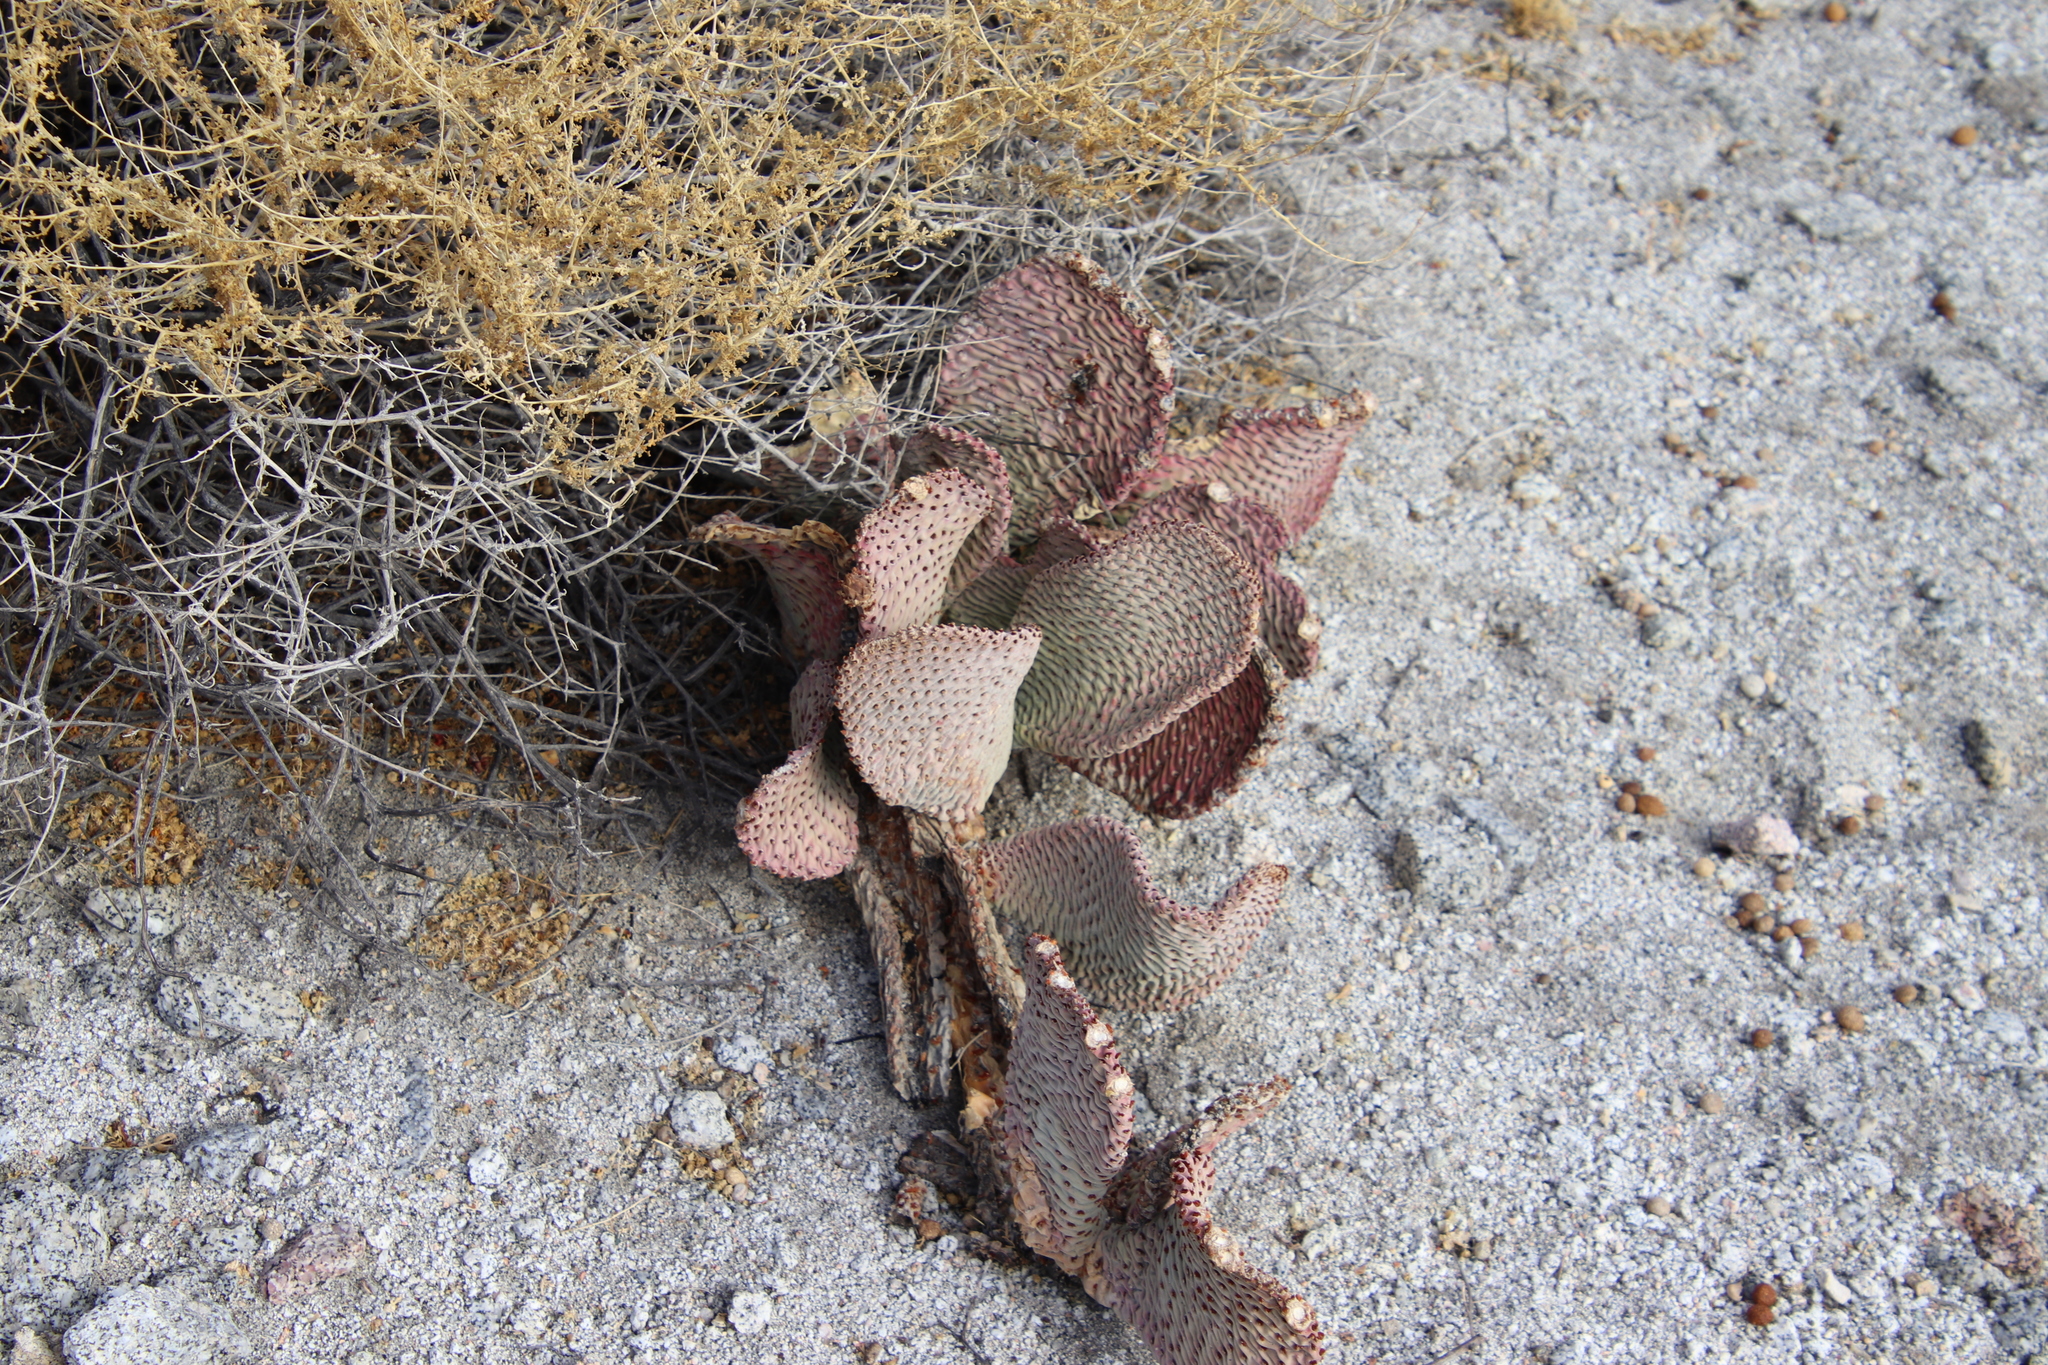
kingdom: Plantae
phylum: Tracheophyta
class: Magnoliopsida
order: Caryophyllales
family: Cactaceae
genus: Opuntia
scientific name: Opuntia basilaris
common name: Beavertail prickly-pear
